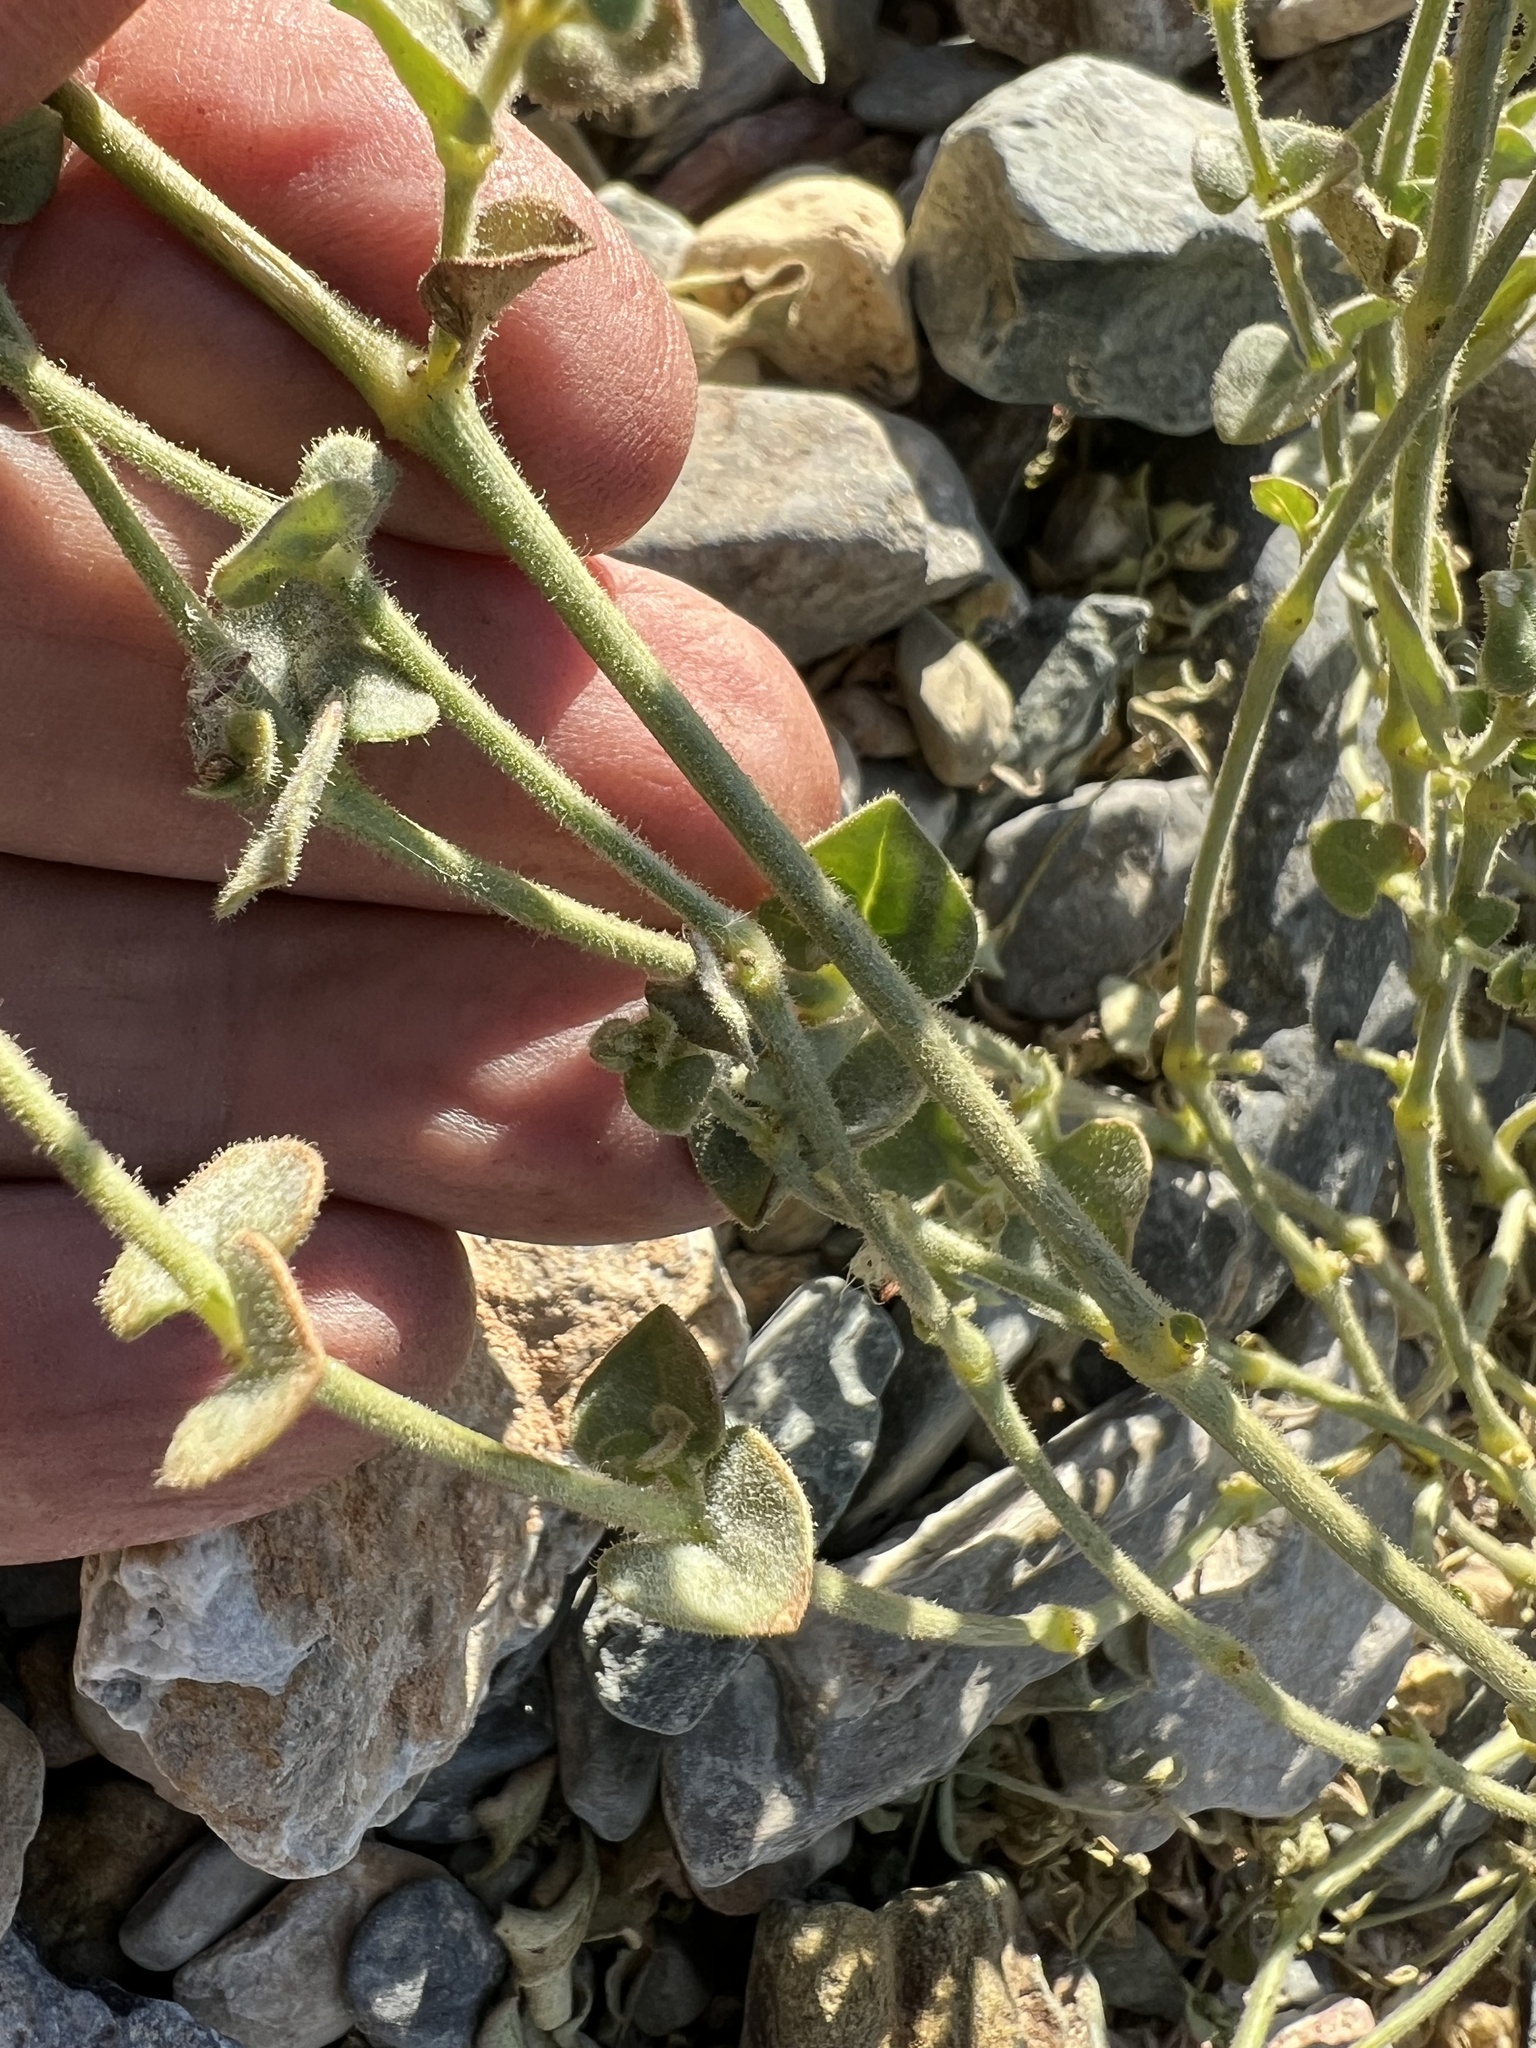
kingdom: Plantae
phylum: Tracheophyta
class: Magnoliopsida
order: Caryophyllales
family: Nyctaginaceae
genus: Mirabilis
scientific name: Mirabilis comata
